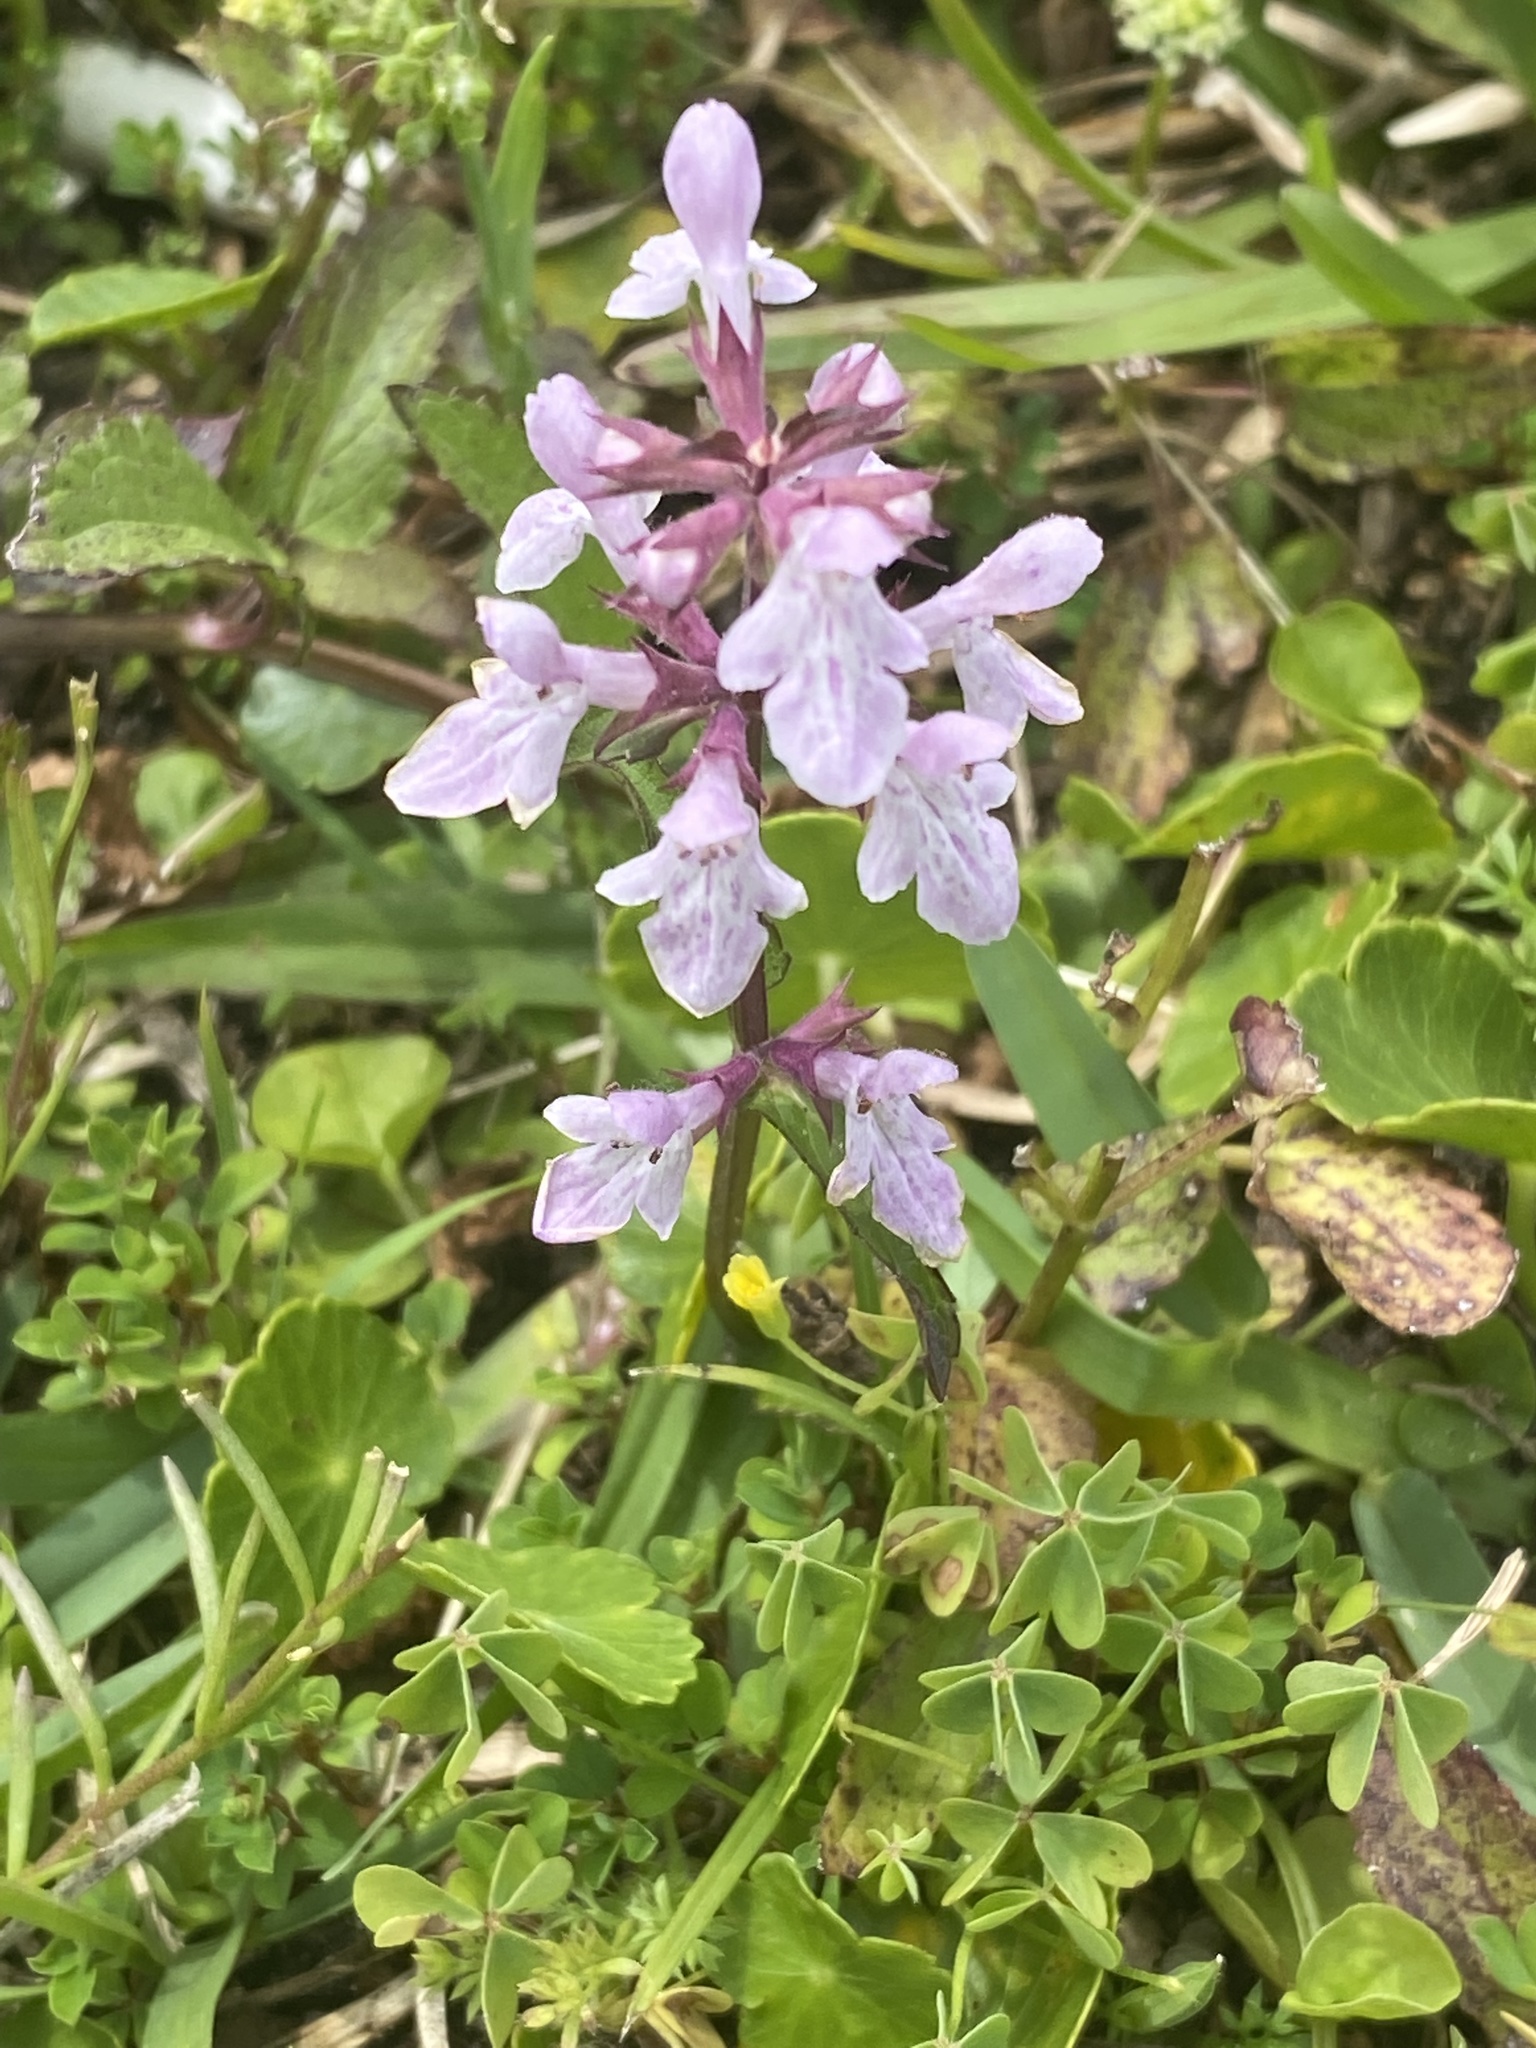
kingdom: Plantae
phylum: Tracheophyta
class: Magnoliopsida
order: Lamiales
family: Lamiaceae
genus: Stachys
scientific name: Stachys floridana
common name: Florida betony
